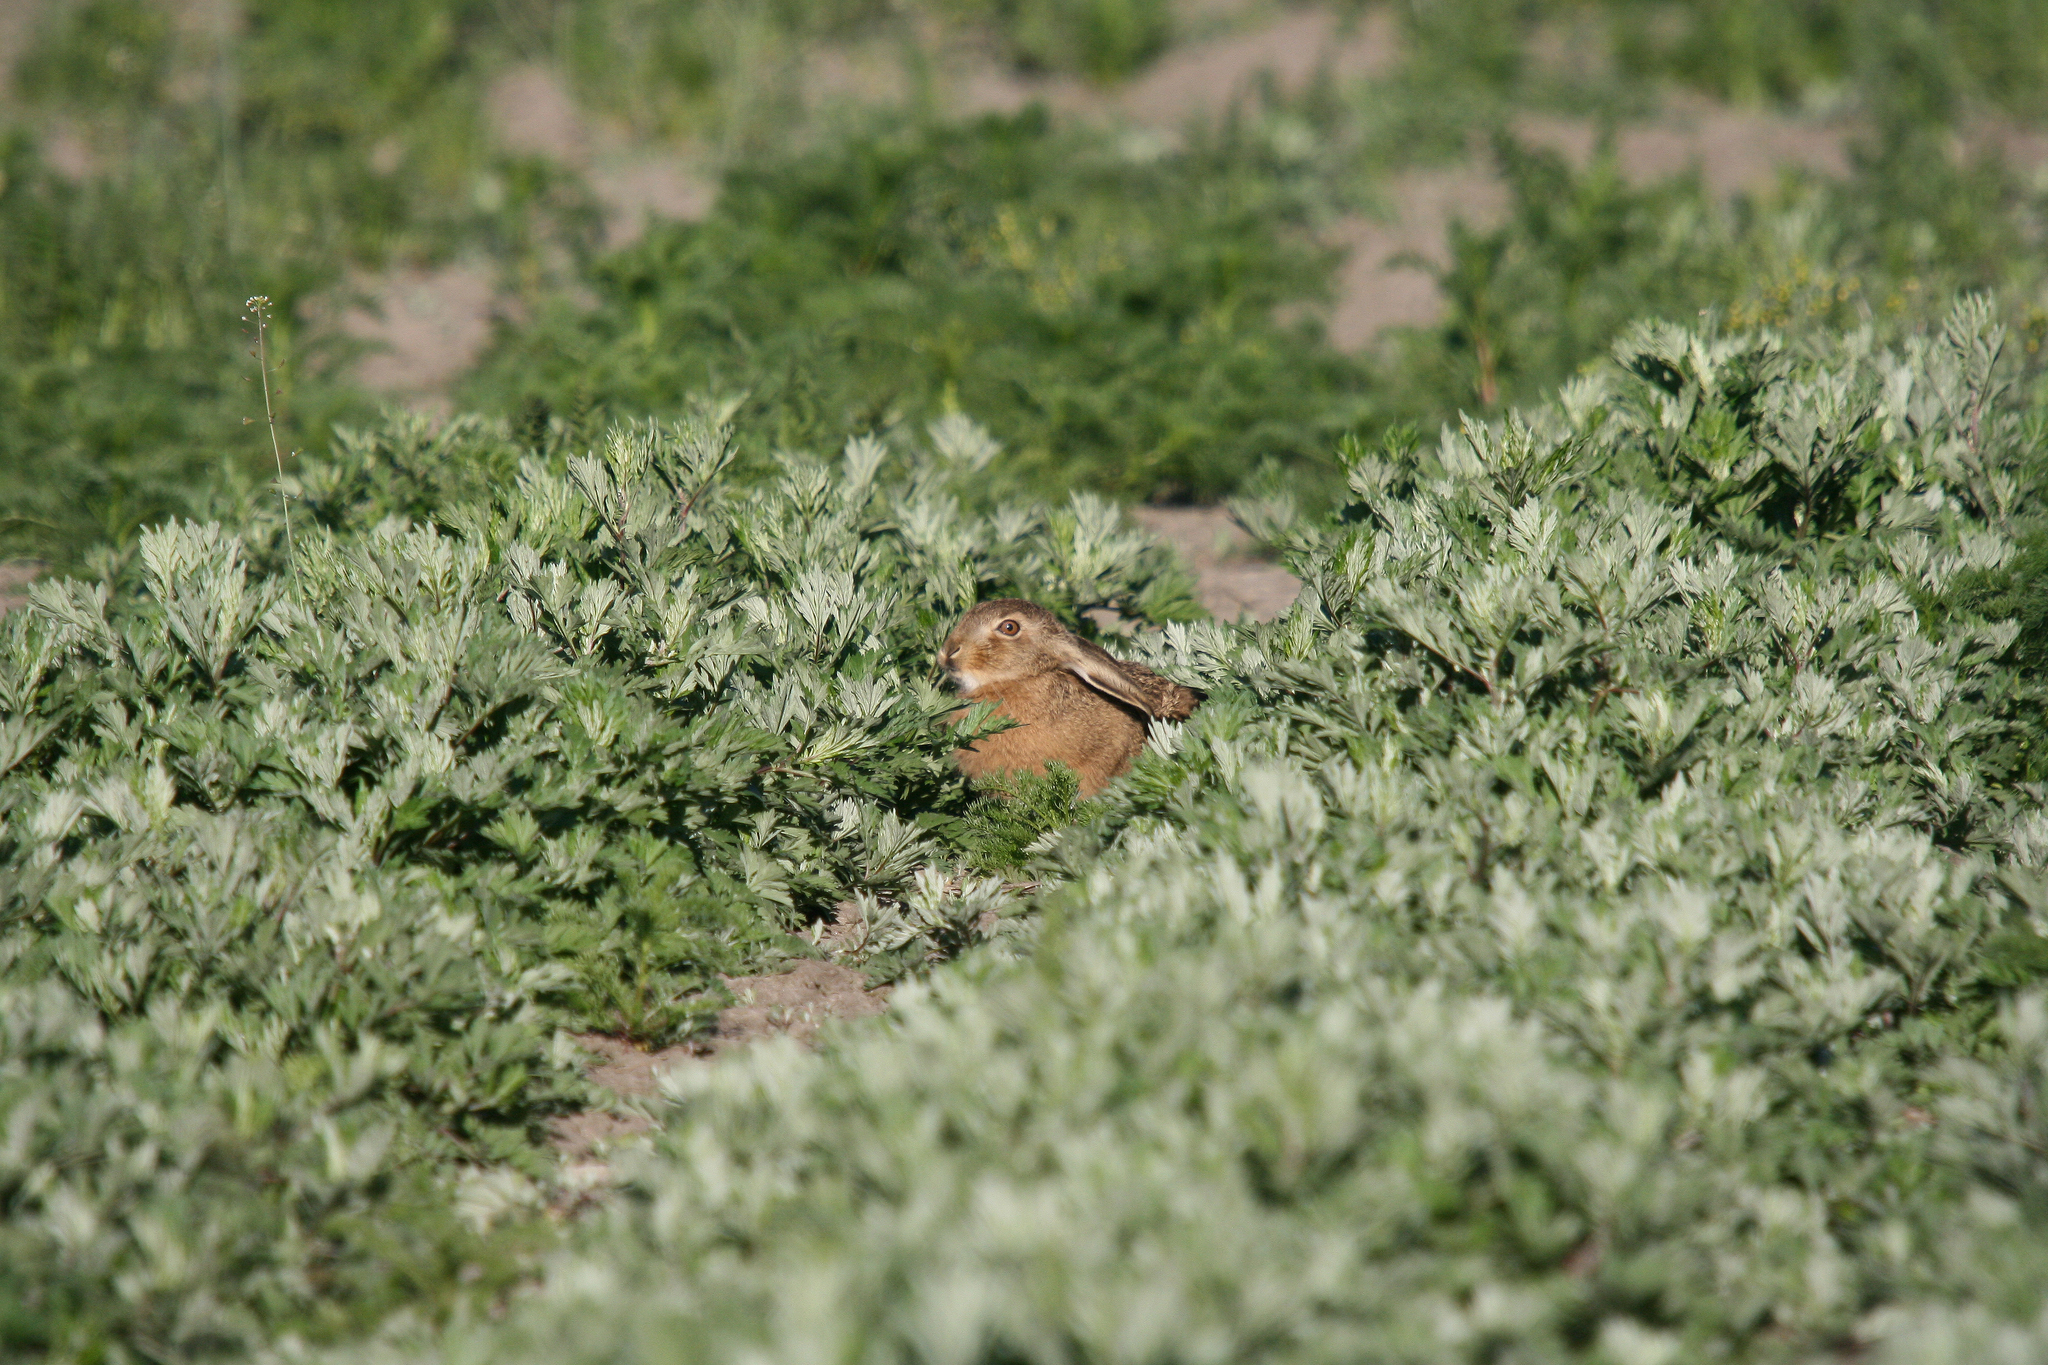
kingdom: Animalia
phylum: Chordata
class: Mammalia
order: Lagomorpha
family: Leporidae
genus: Lepus
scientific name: Lepus europaeus
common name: European hare
